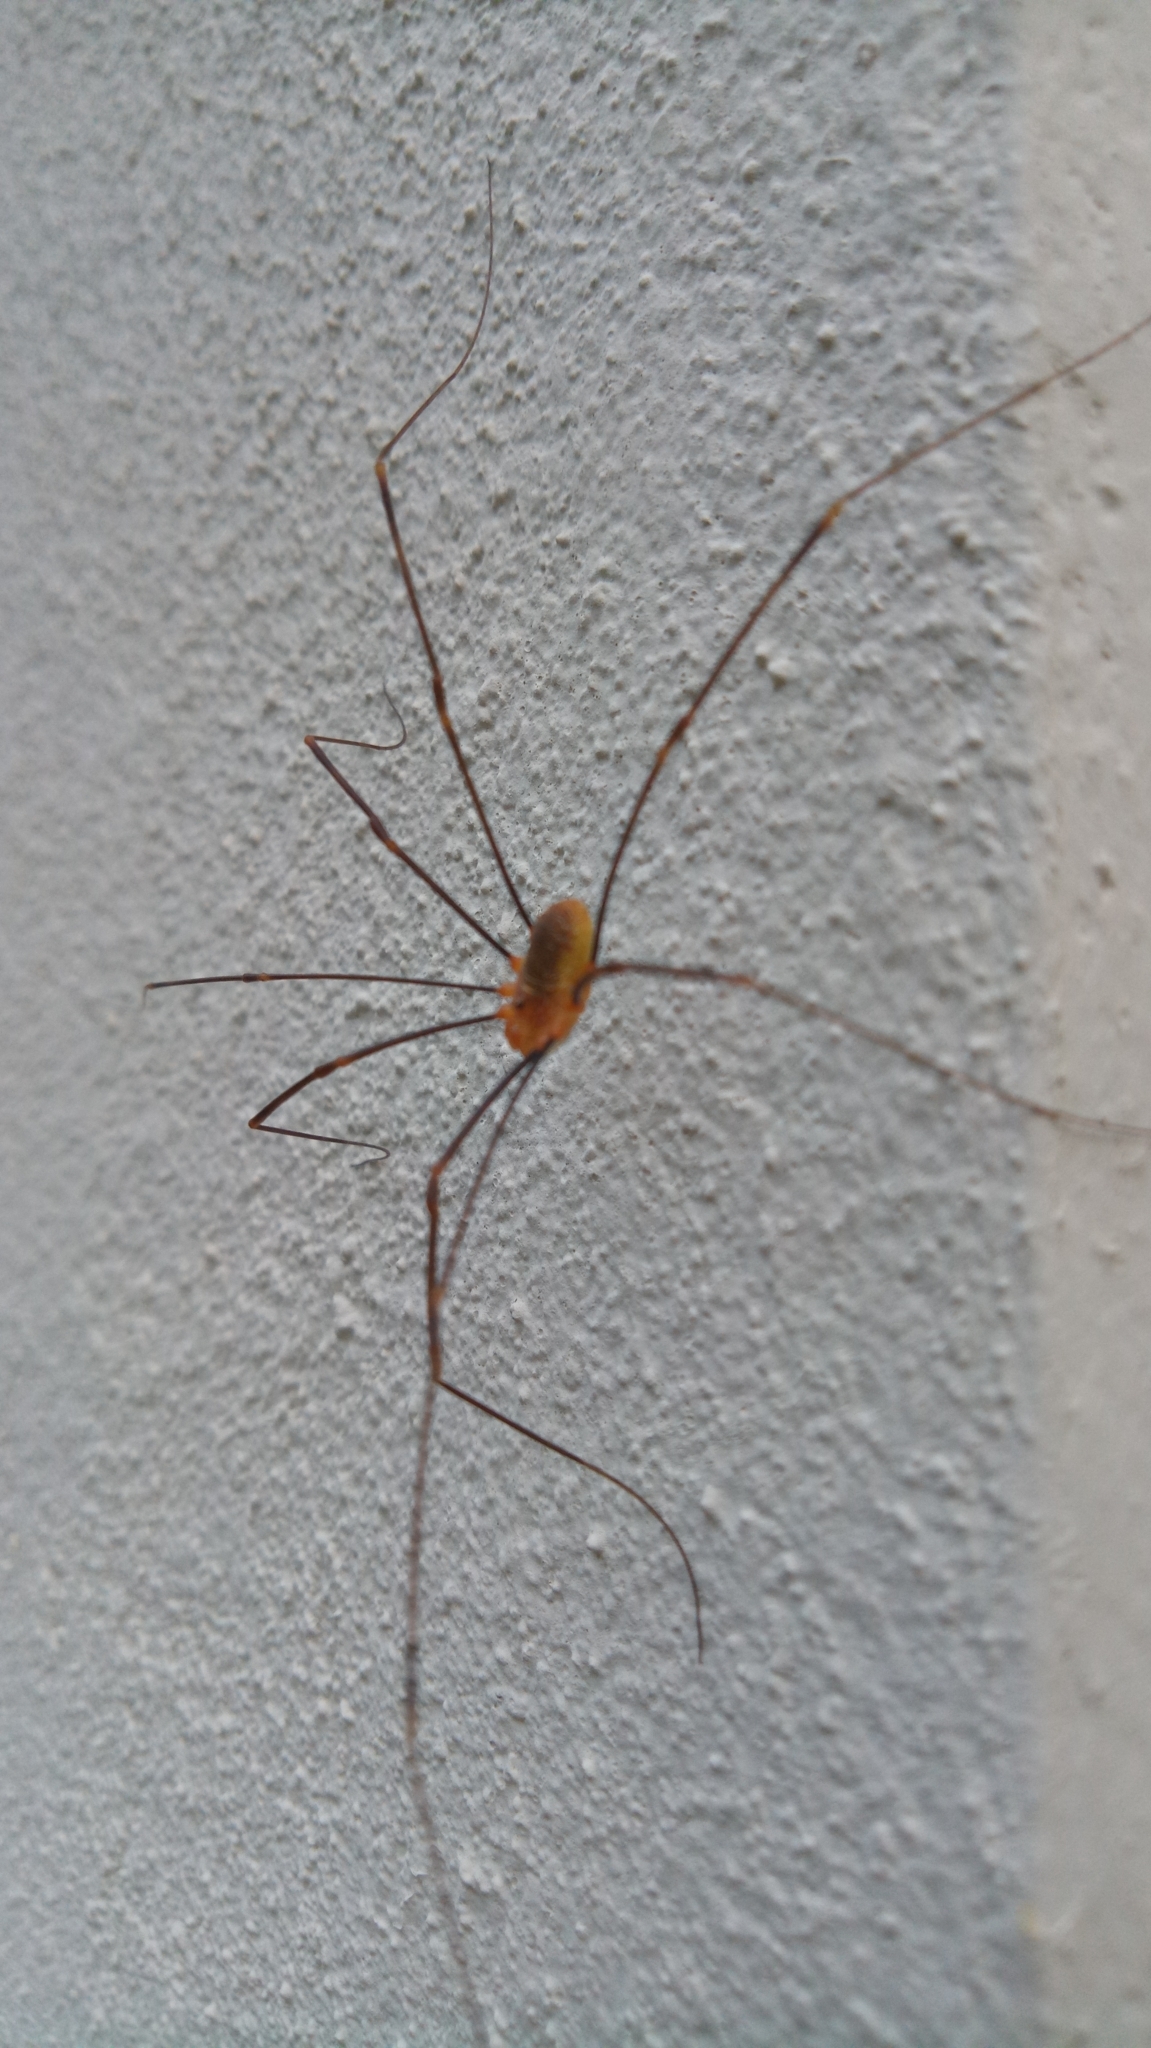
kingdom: Animalia
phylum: Arthropoda
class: Arachnida
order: Opiliones
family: Phalangiidae
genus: Opilio
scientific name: Opilio canestrinii
